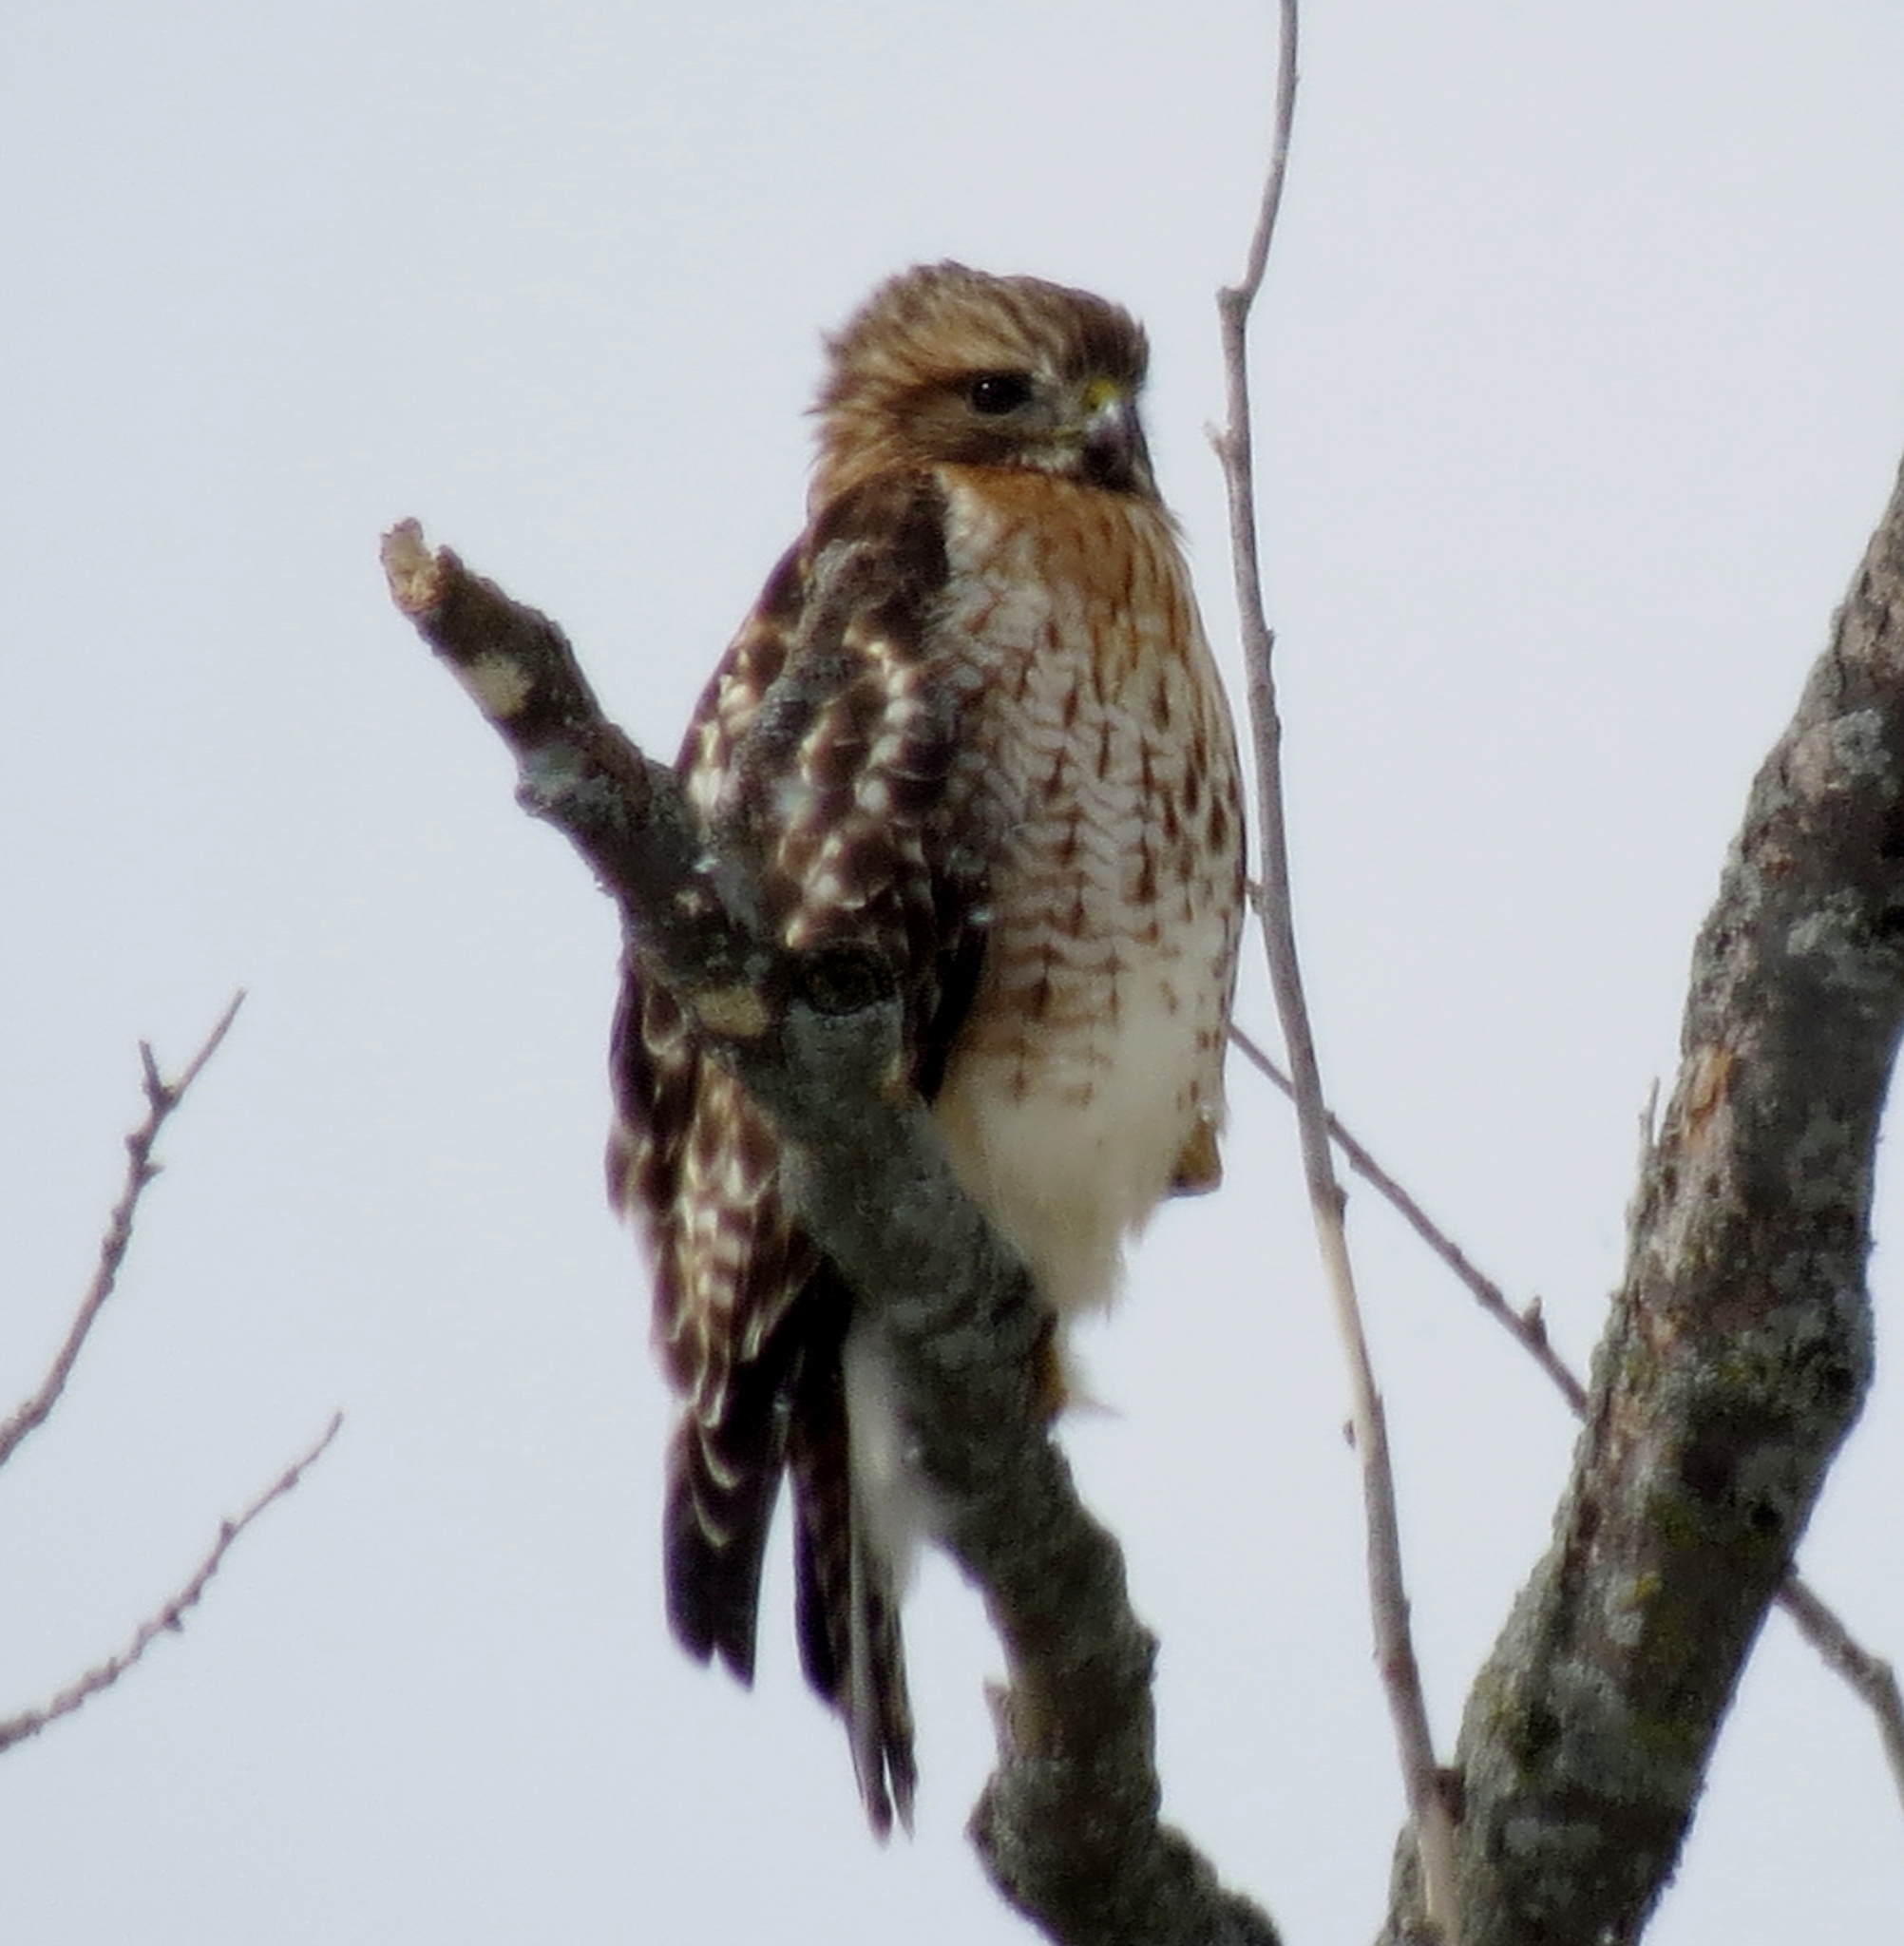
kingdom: Animalia
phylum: Chordata
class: Aves
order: Accipitriformes
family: Accipitridae
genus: Buteo
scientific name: Buteo lineatus
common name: Red-shouldered hawk
